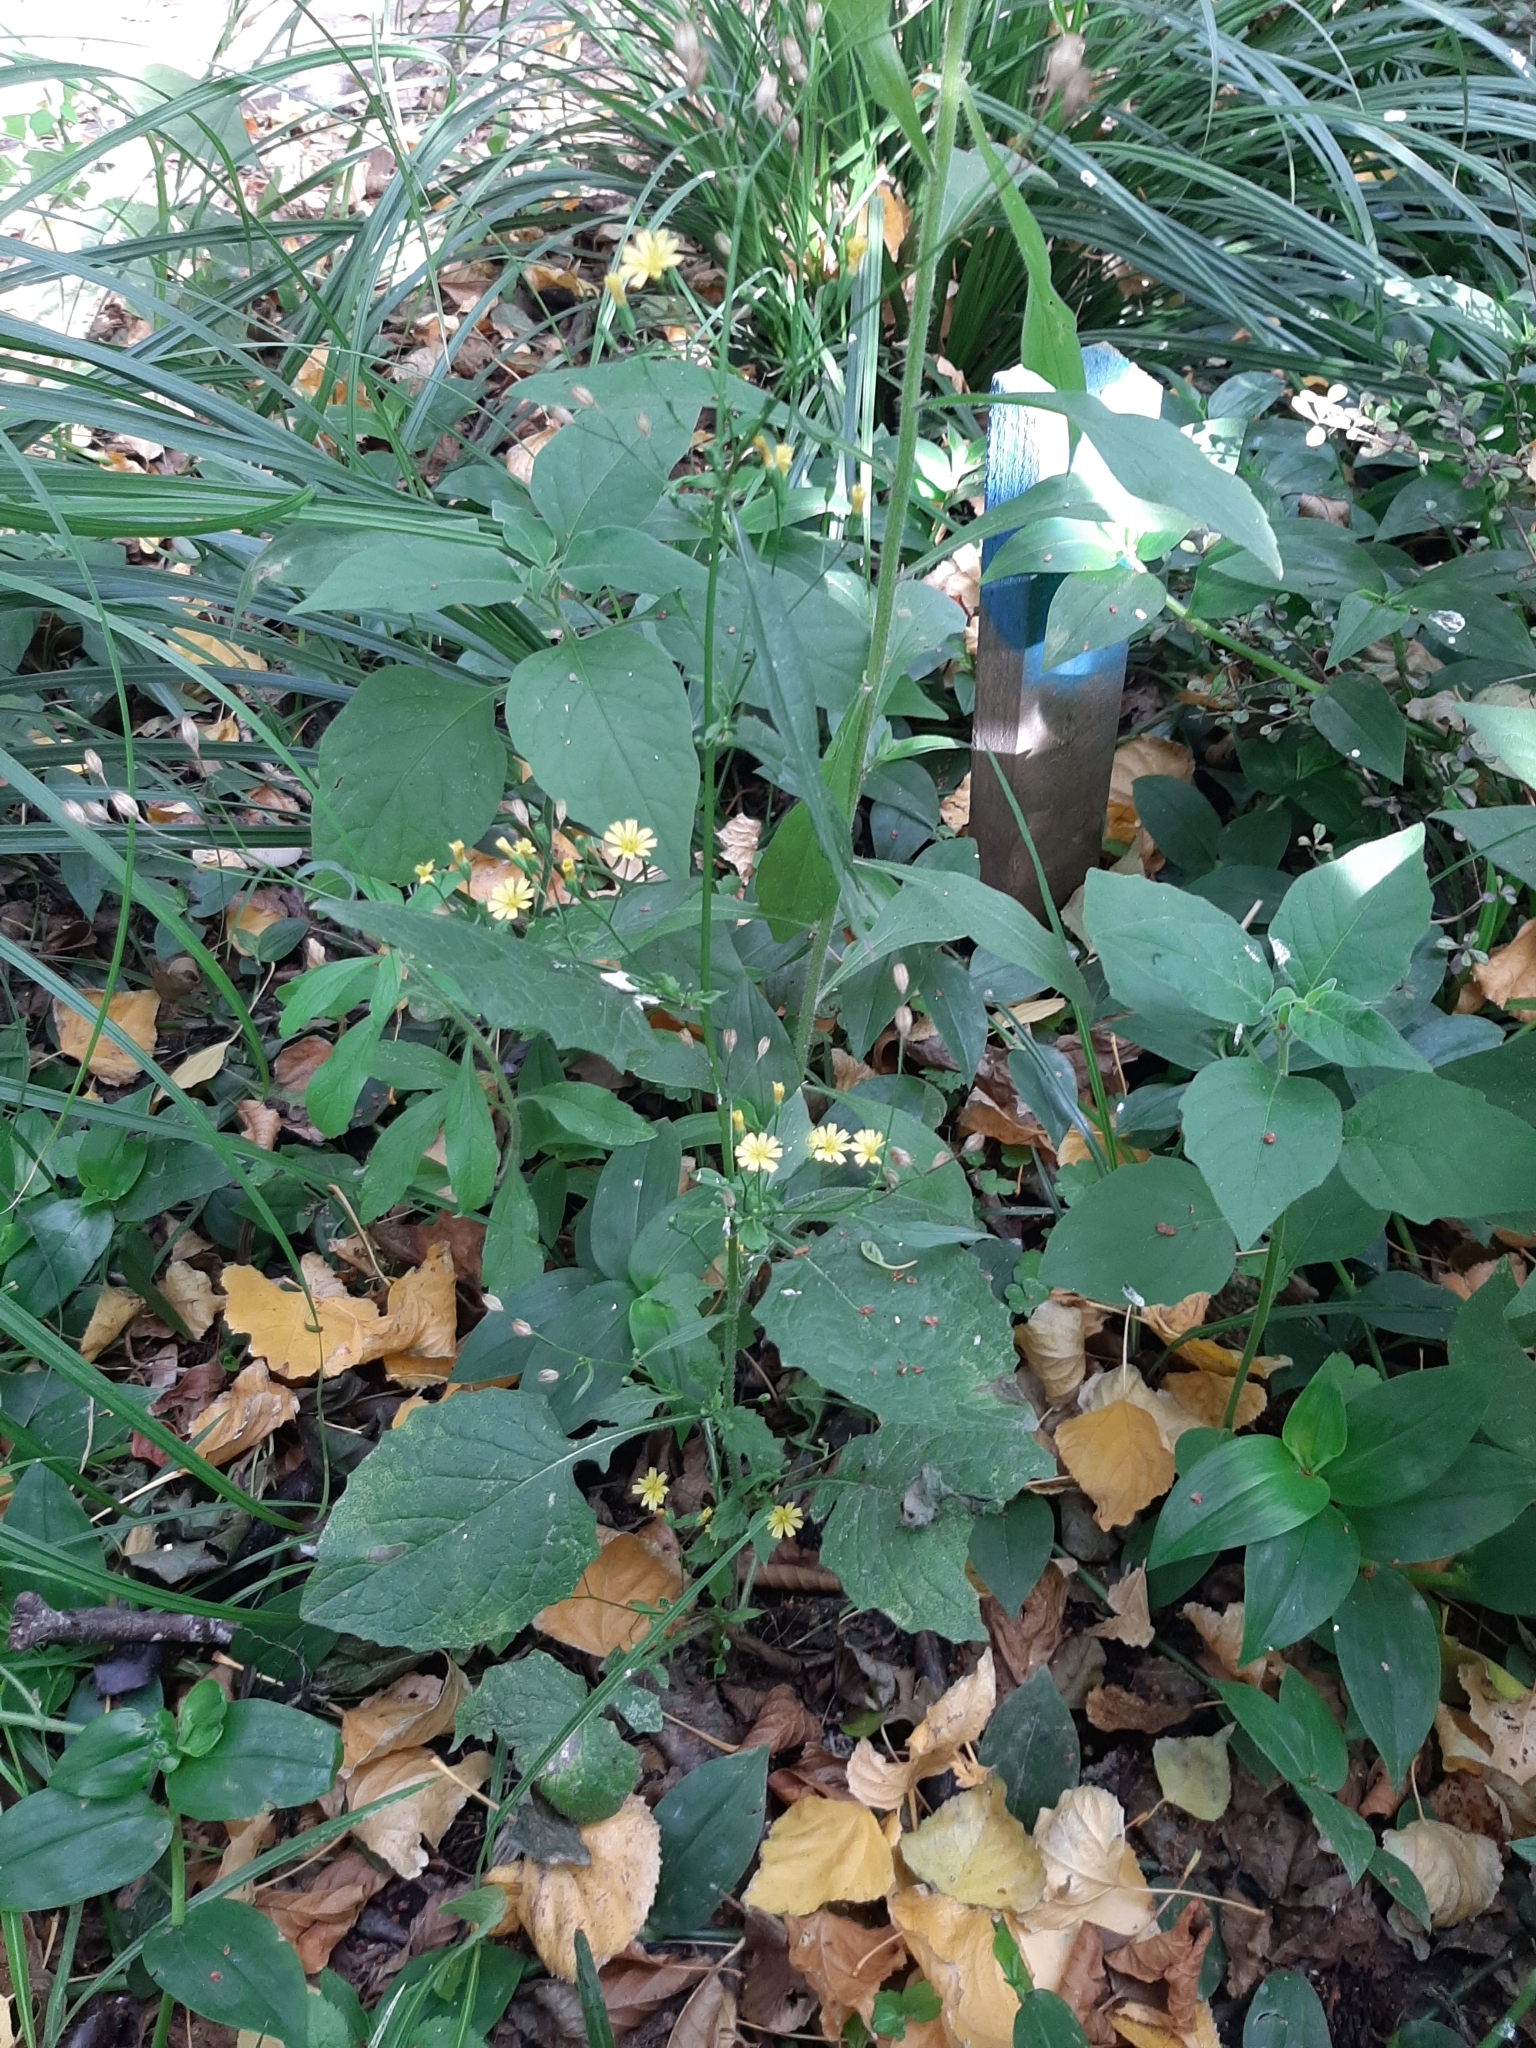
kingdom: Plantae
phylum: Tracheophyta
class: Magnoliopsida
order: Asterales
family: Asteraceae
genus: Lapsana
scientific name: Lapsana communis
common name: Nipplewort
